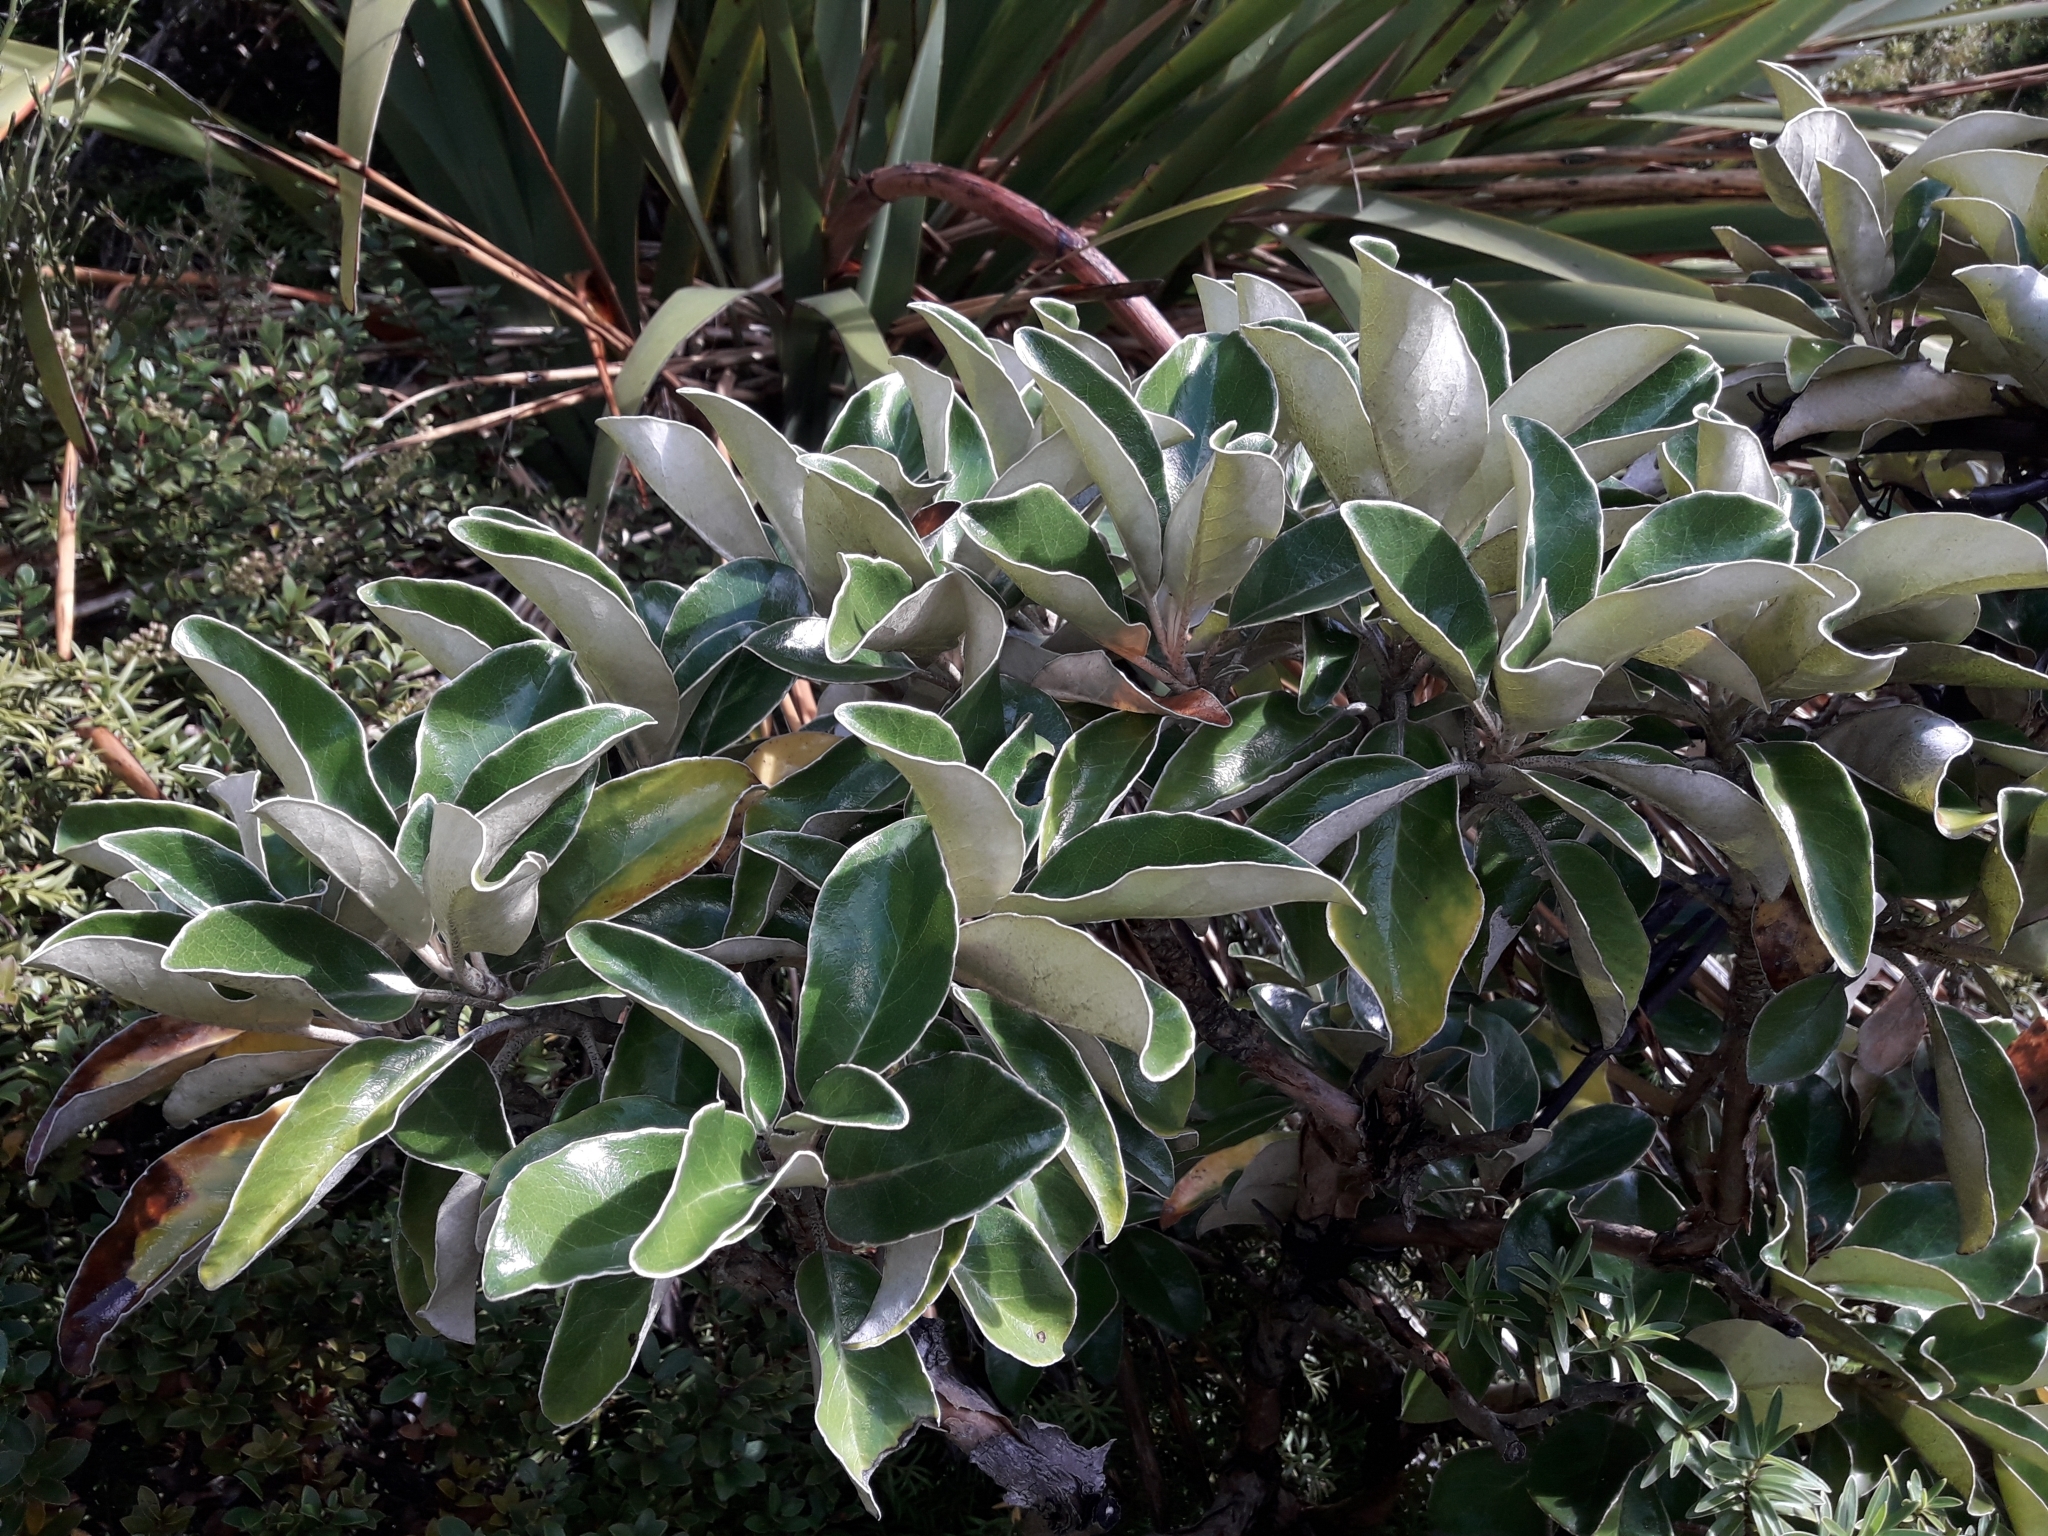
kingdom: Plantae
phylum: Tracheophyta
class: Magnoliopsida
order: Asterales
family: Asteraceae
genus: Brachyglottis
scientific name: Brachyglottis buchananii
